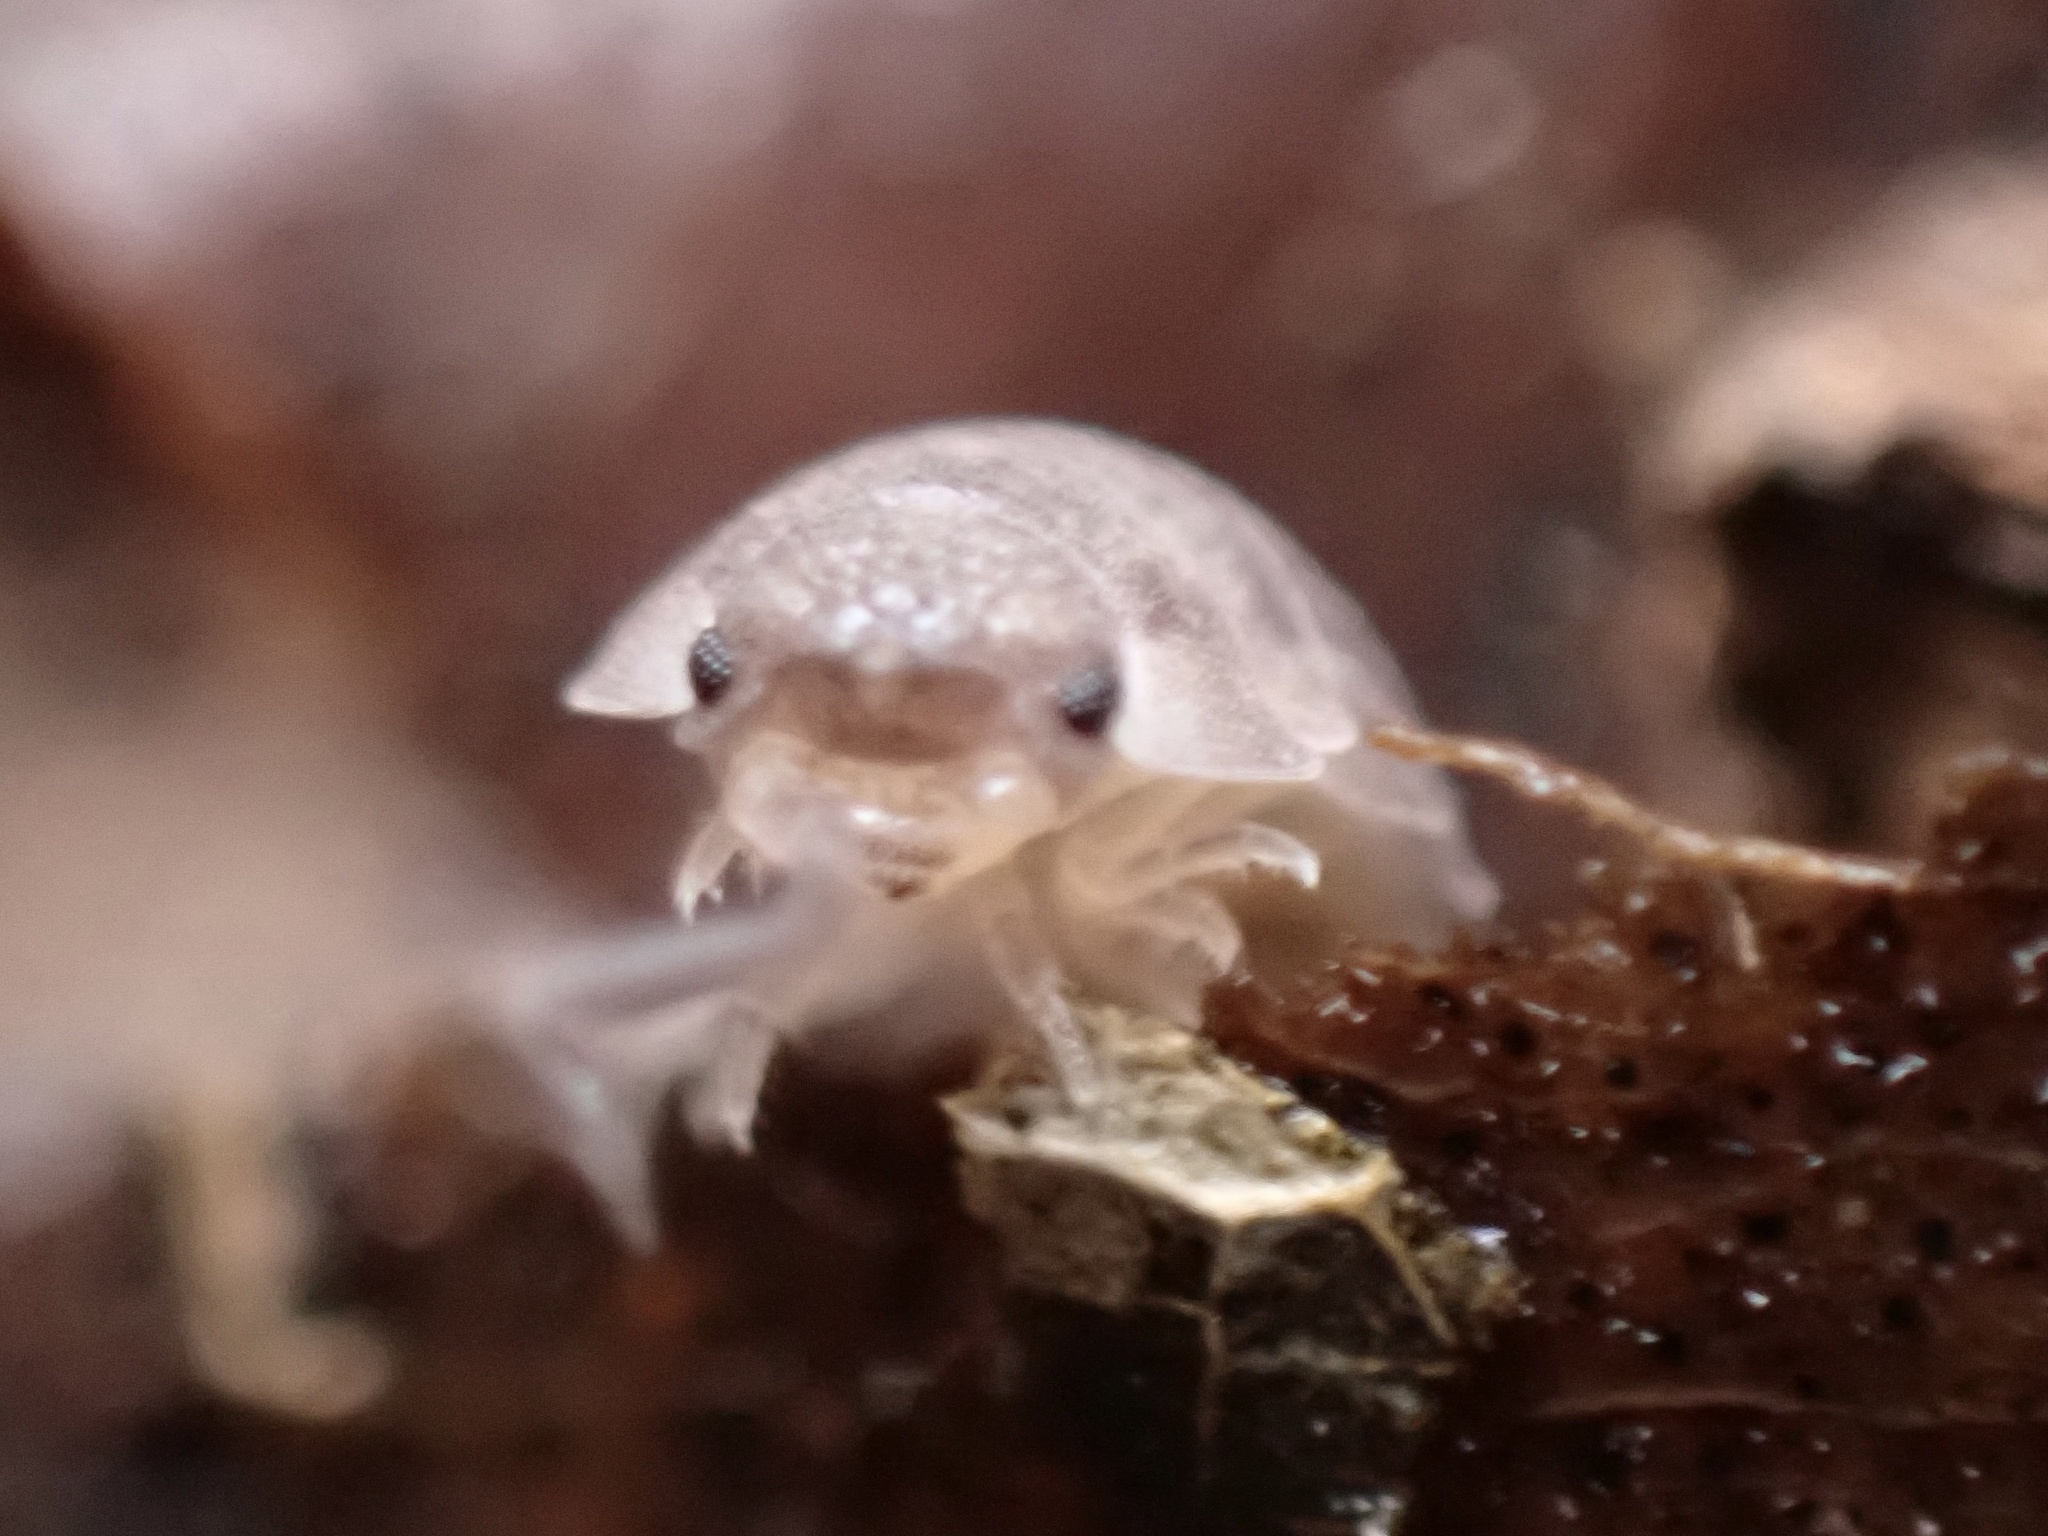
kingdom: Animalia
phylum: Arthropoda
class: Malacostraca
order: Isopoda
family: Oniscidae
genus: Oniscus
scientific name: Oniscus asellus
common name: Common shiny woodlouse
